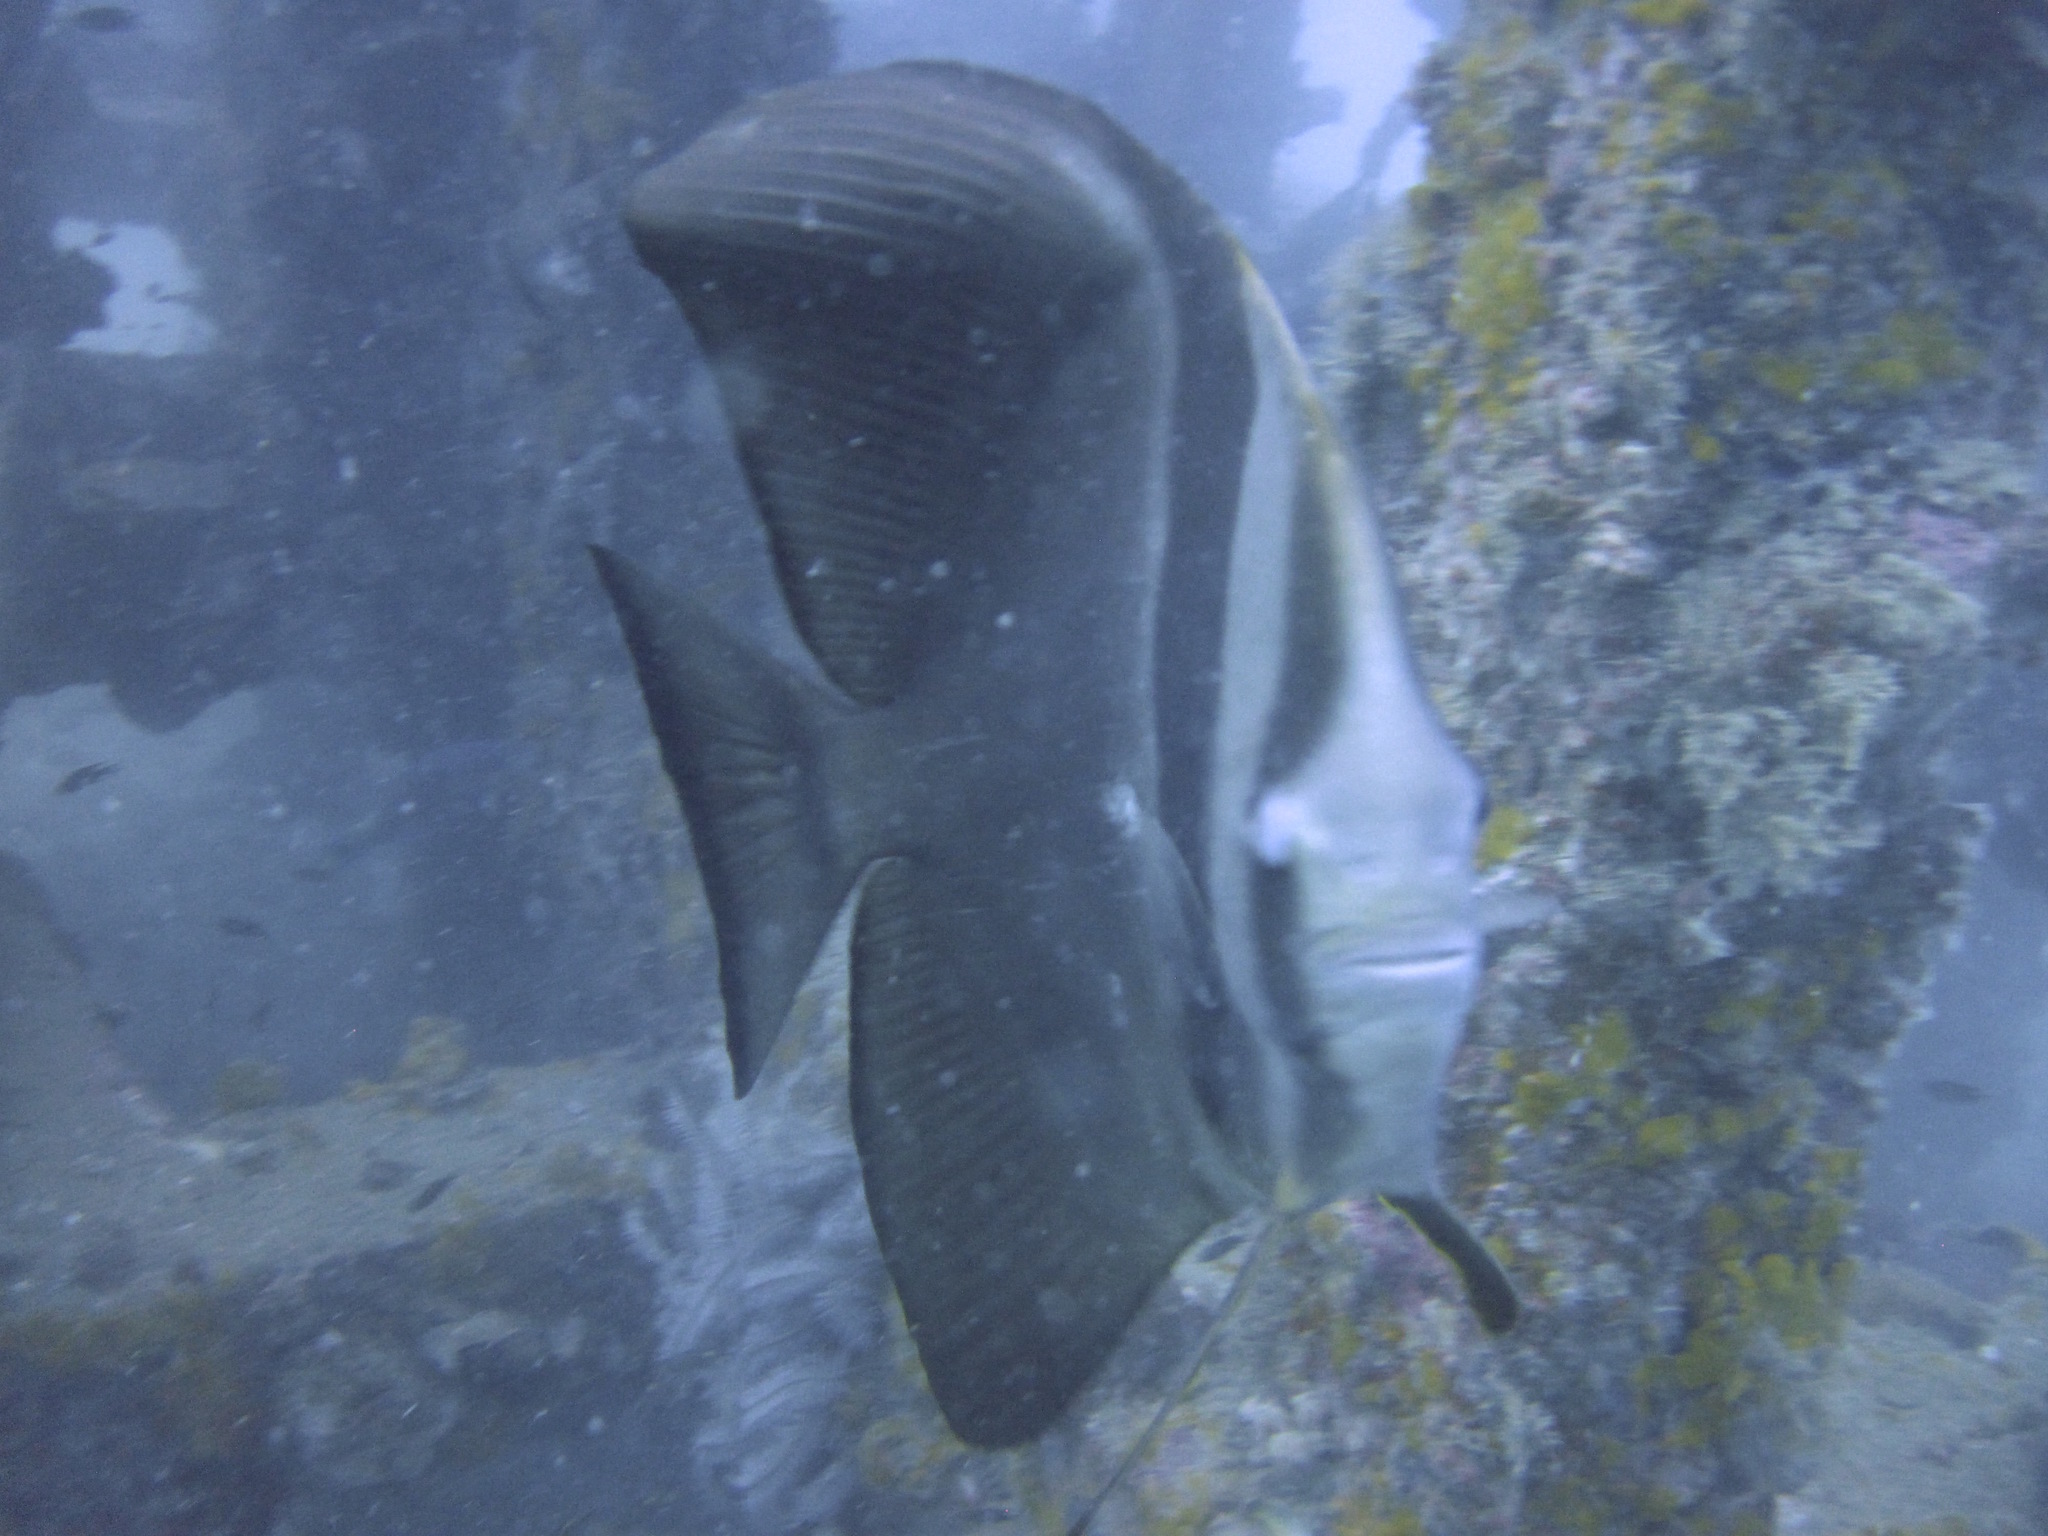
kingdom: Animalia
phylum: Chordata
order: Perciformes
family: Ephippidae
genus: Platax
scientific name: Platax teira
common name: Longfin baitfish
